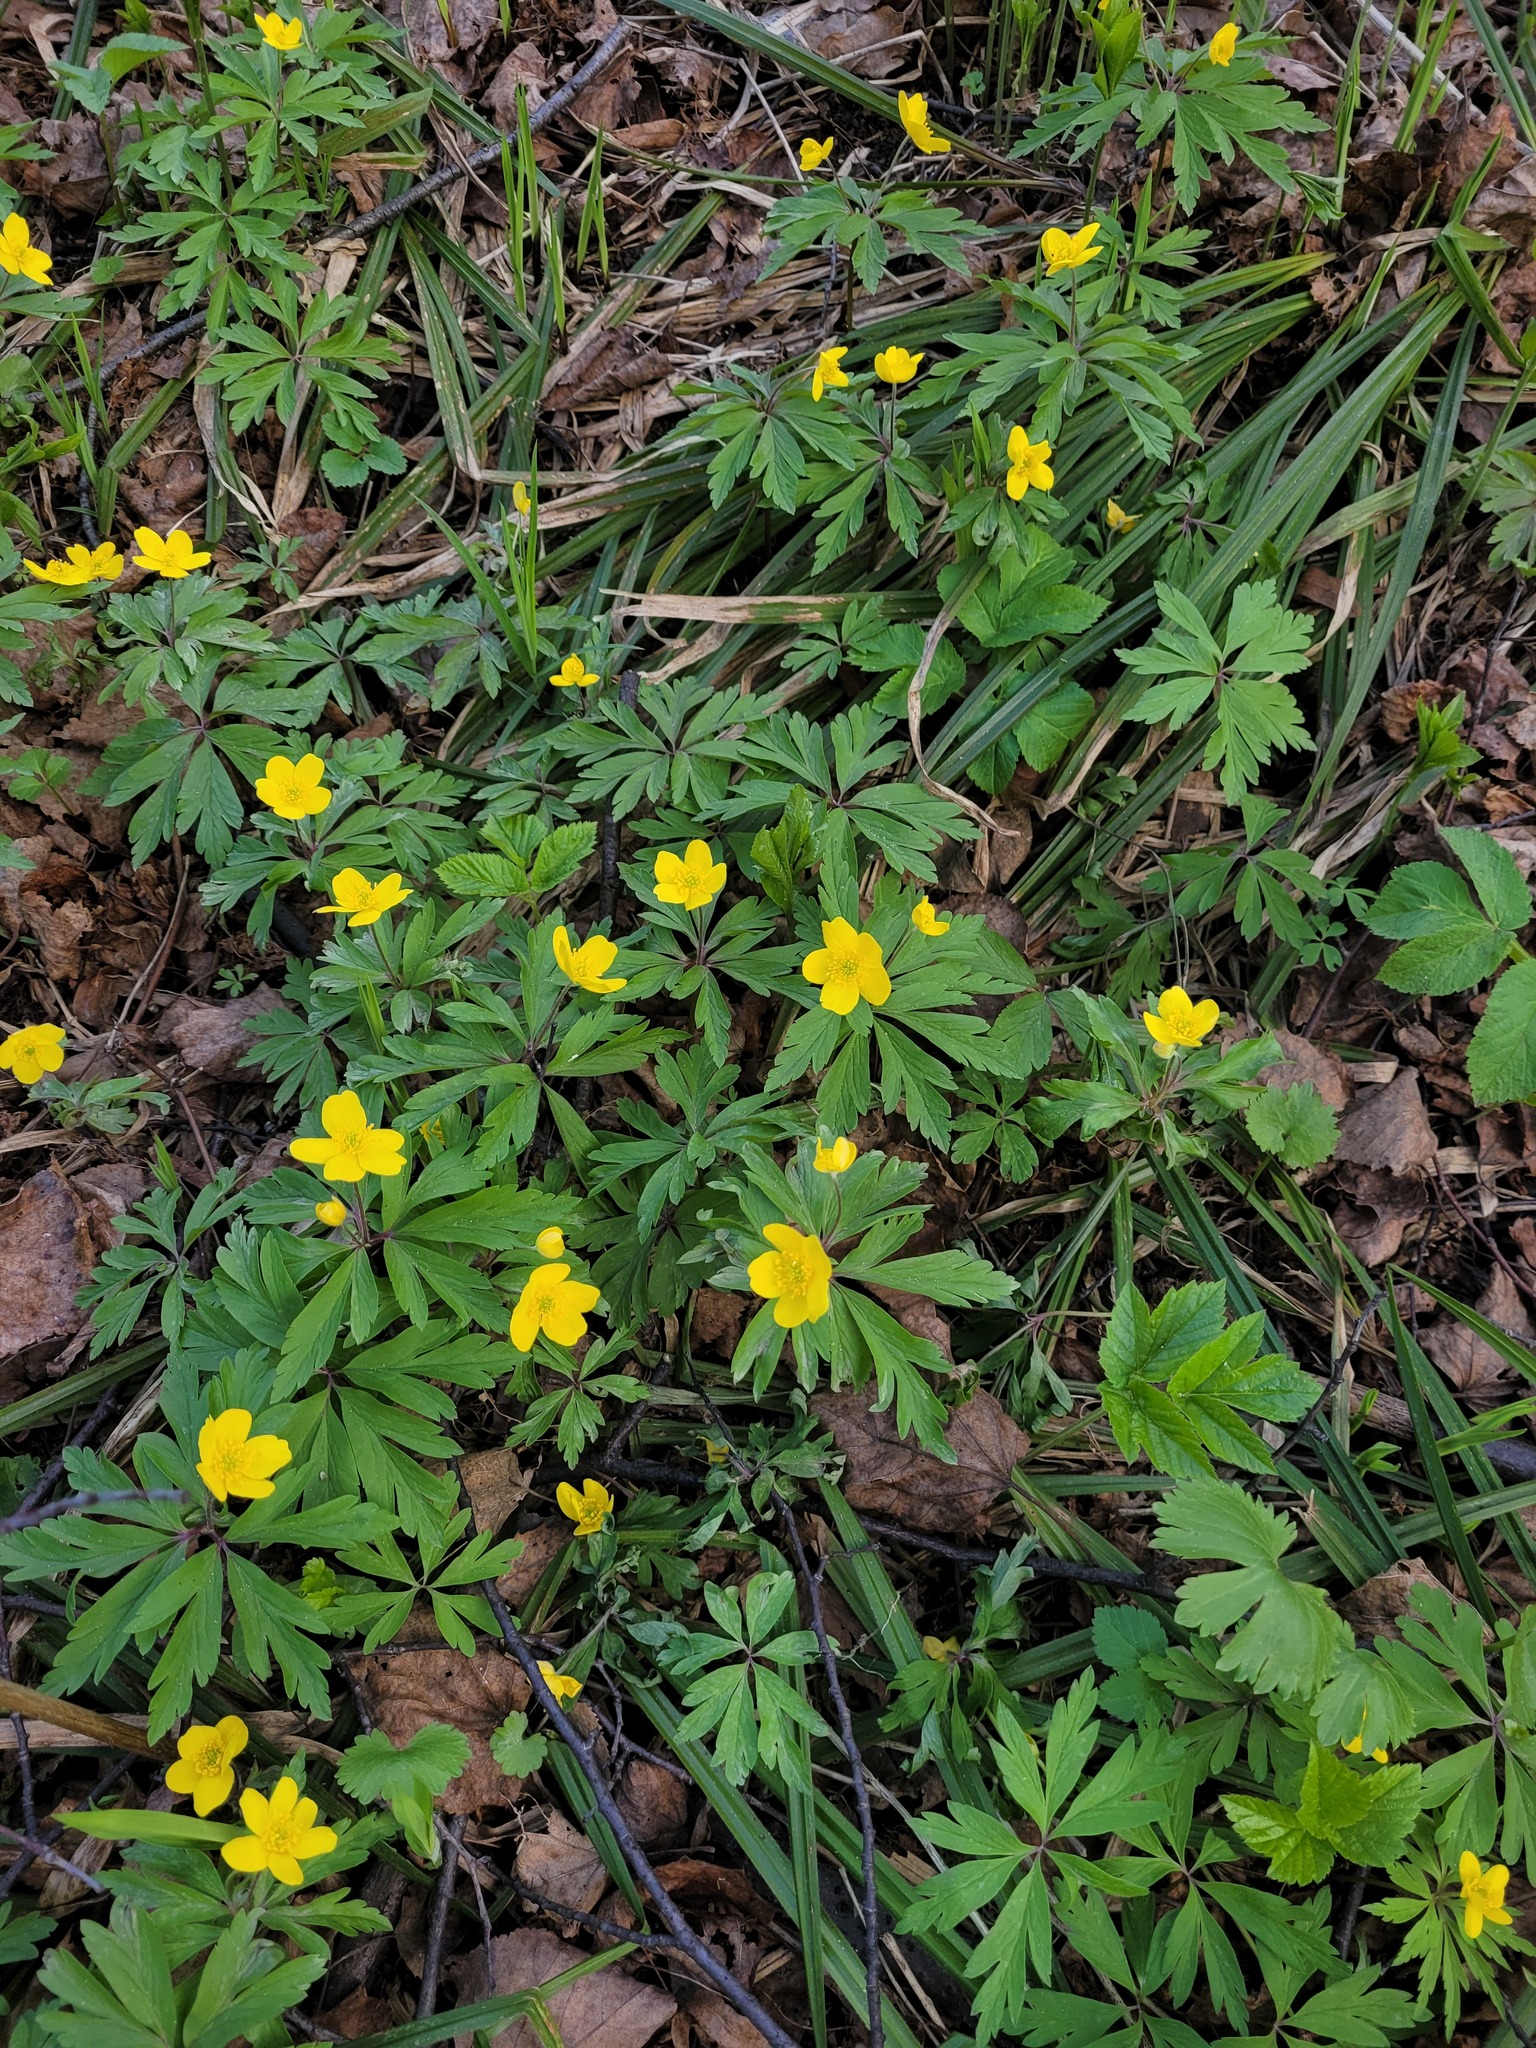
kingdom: Plantae
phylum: Tracheophyta
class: Magnoliopsida
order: Ranunculales
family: Ranunculaceae
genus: Anemone
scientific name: Anemone ranunculoides
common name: Yellow anemone
